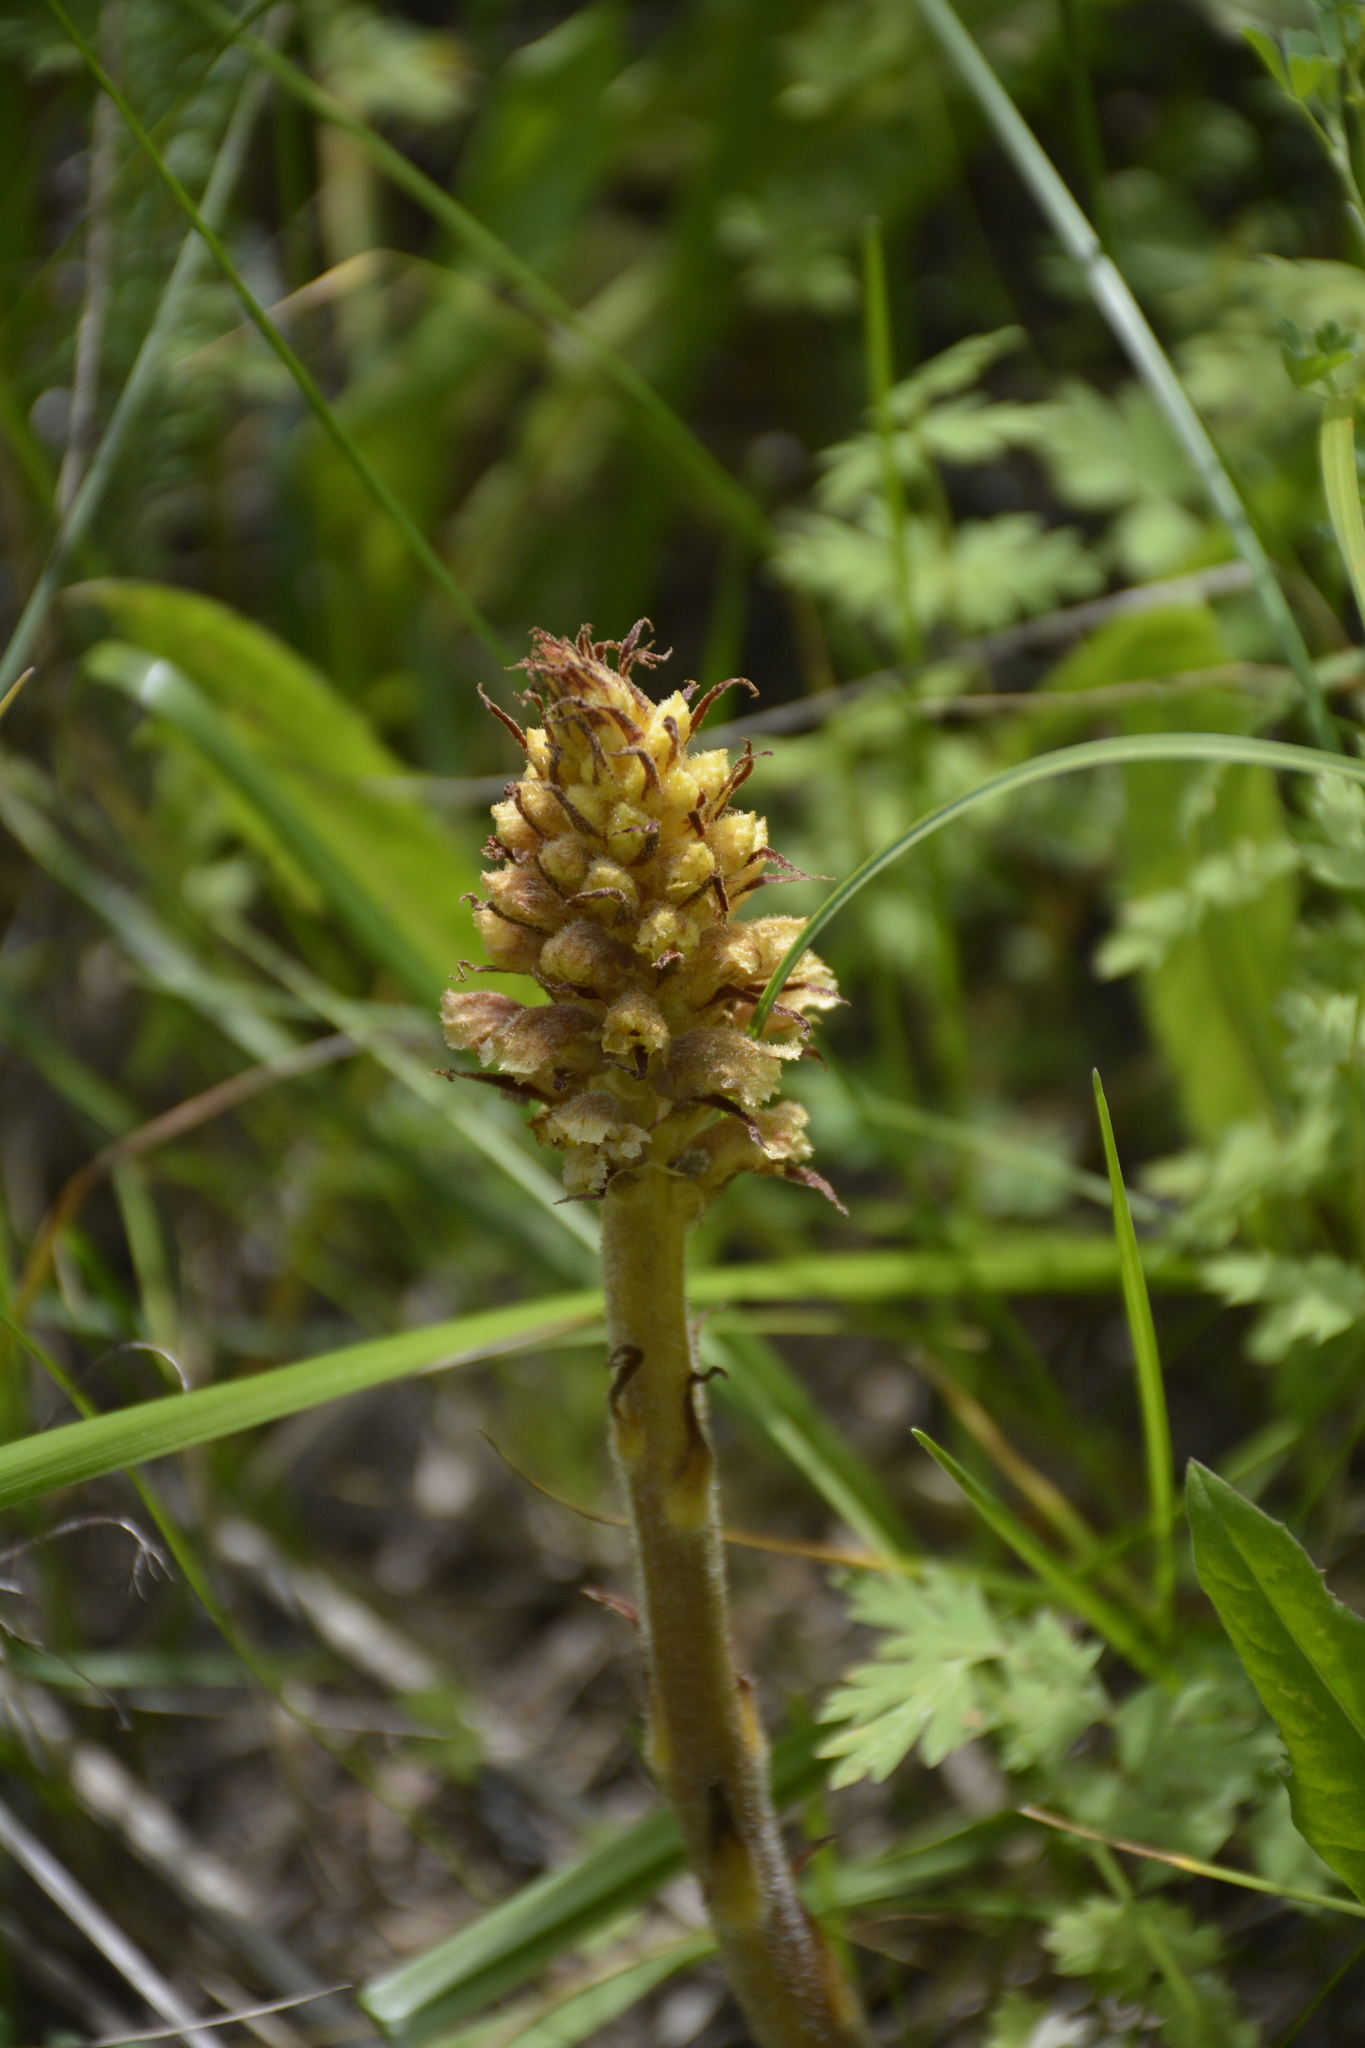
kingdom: Plantae
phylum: Tracheophyta
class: Magnoliopsida
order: Lamiales
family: Orobanchaceae
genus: Orobanche
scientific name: Orobanche alsatica
